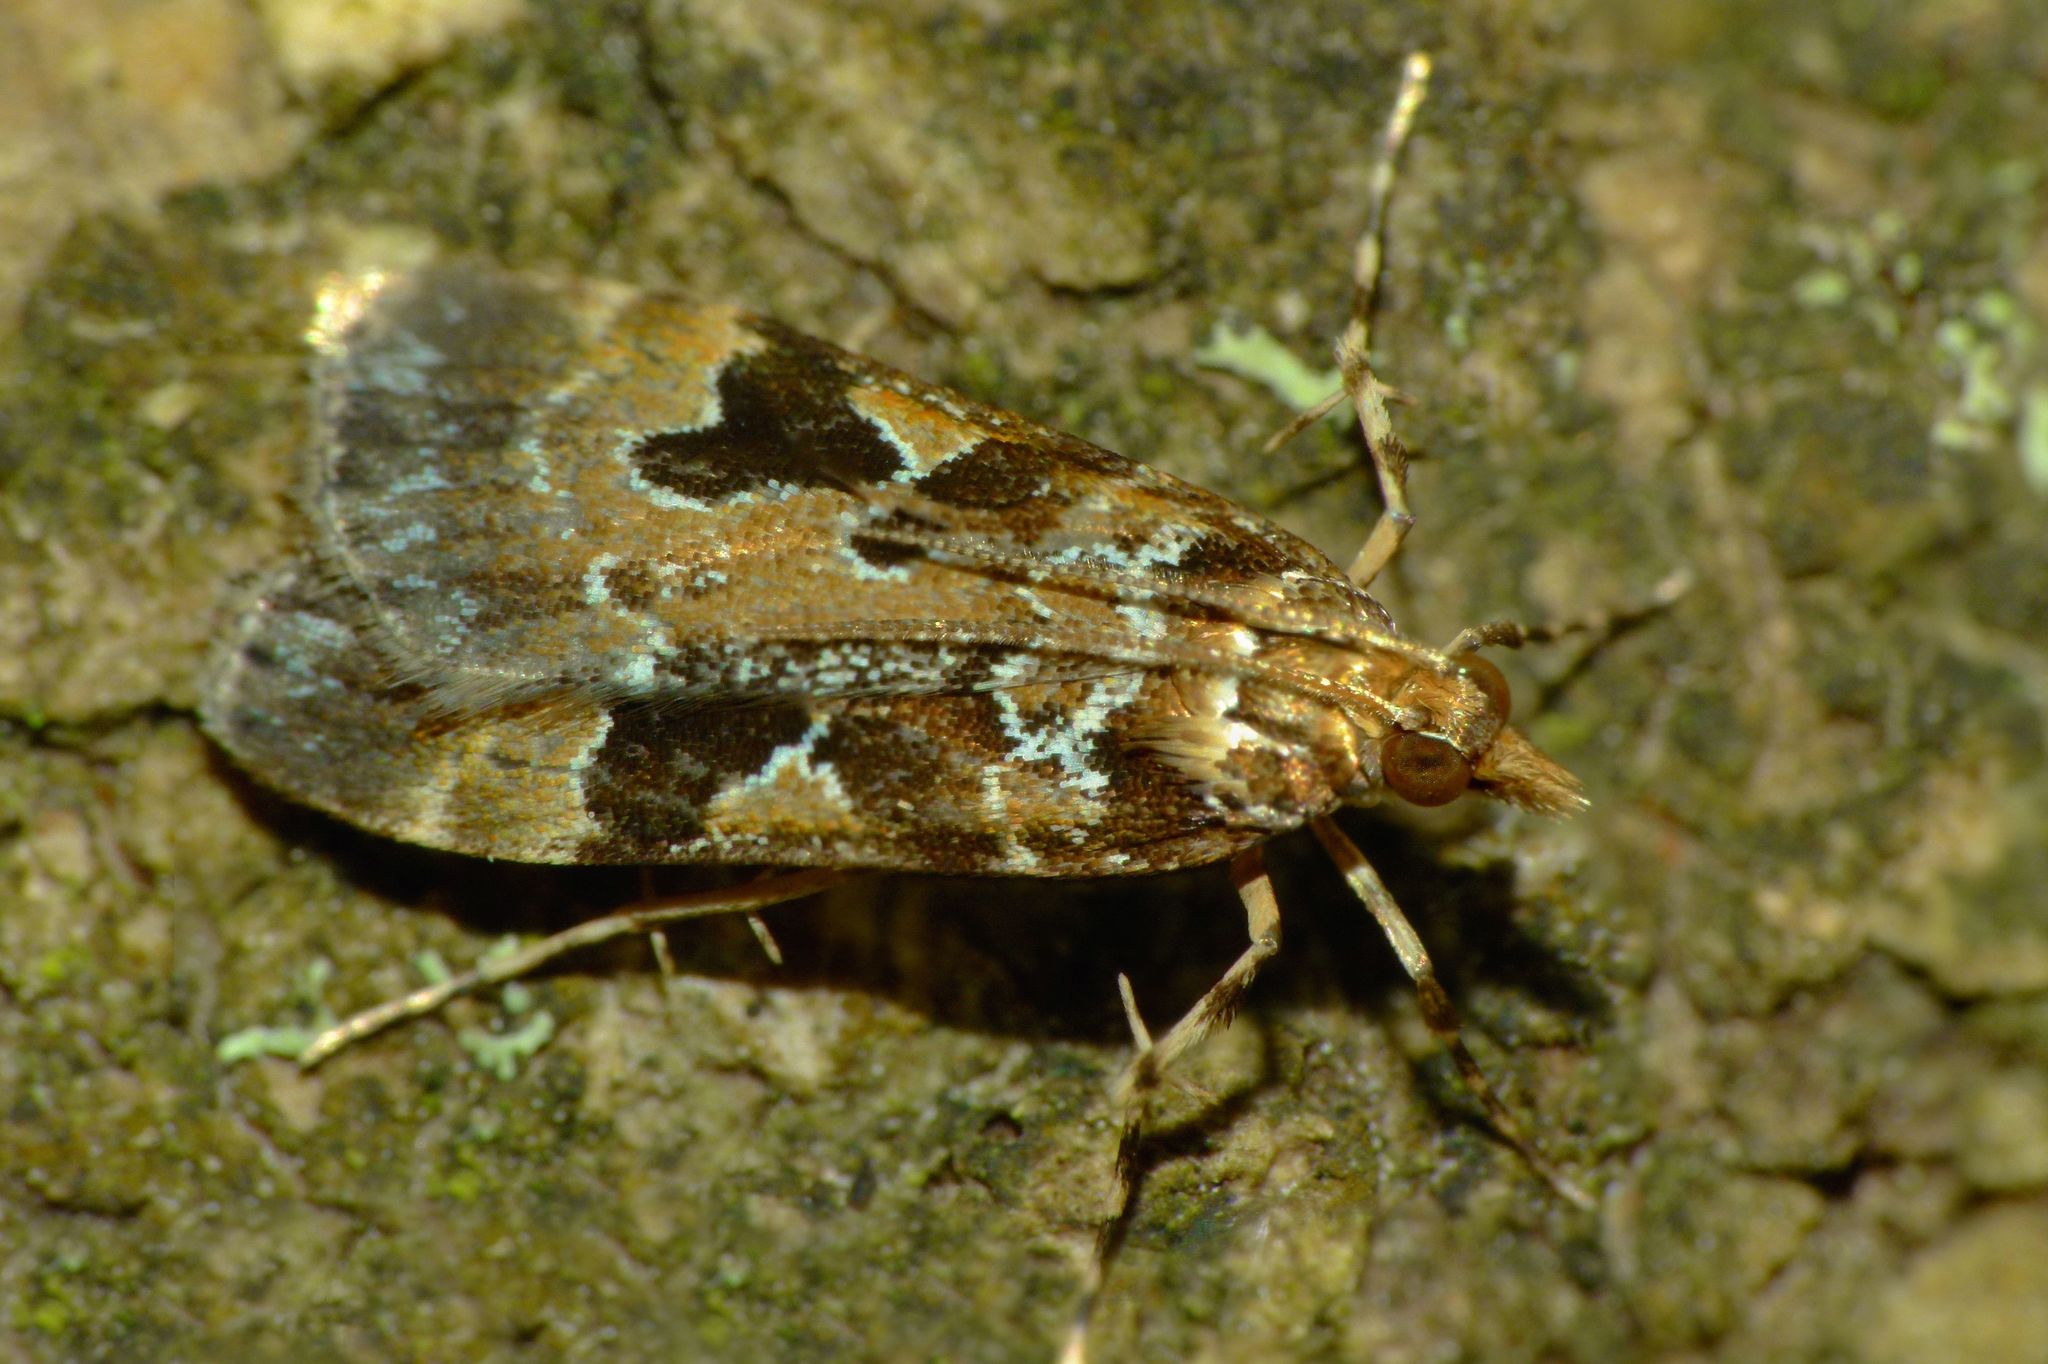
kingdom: Animalia
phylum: Arthropoda
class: Insecta
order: Lepidoptera
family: Crambidae
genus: Scoparia
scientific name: Scoparia ustimacula
